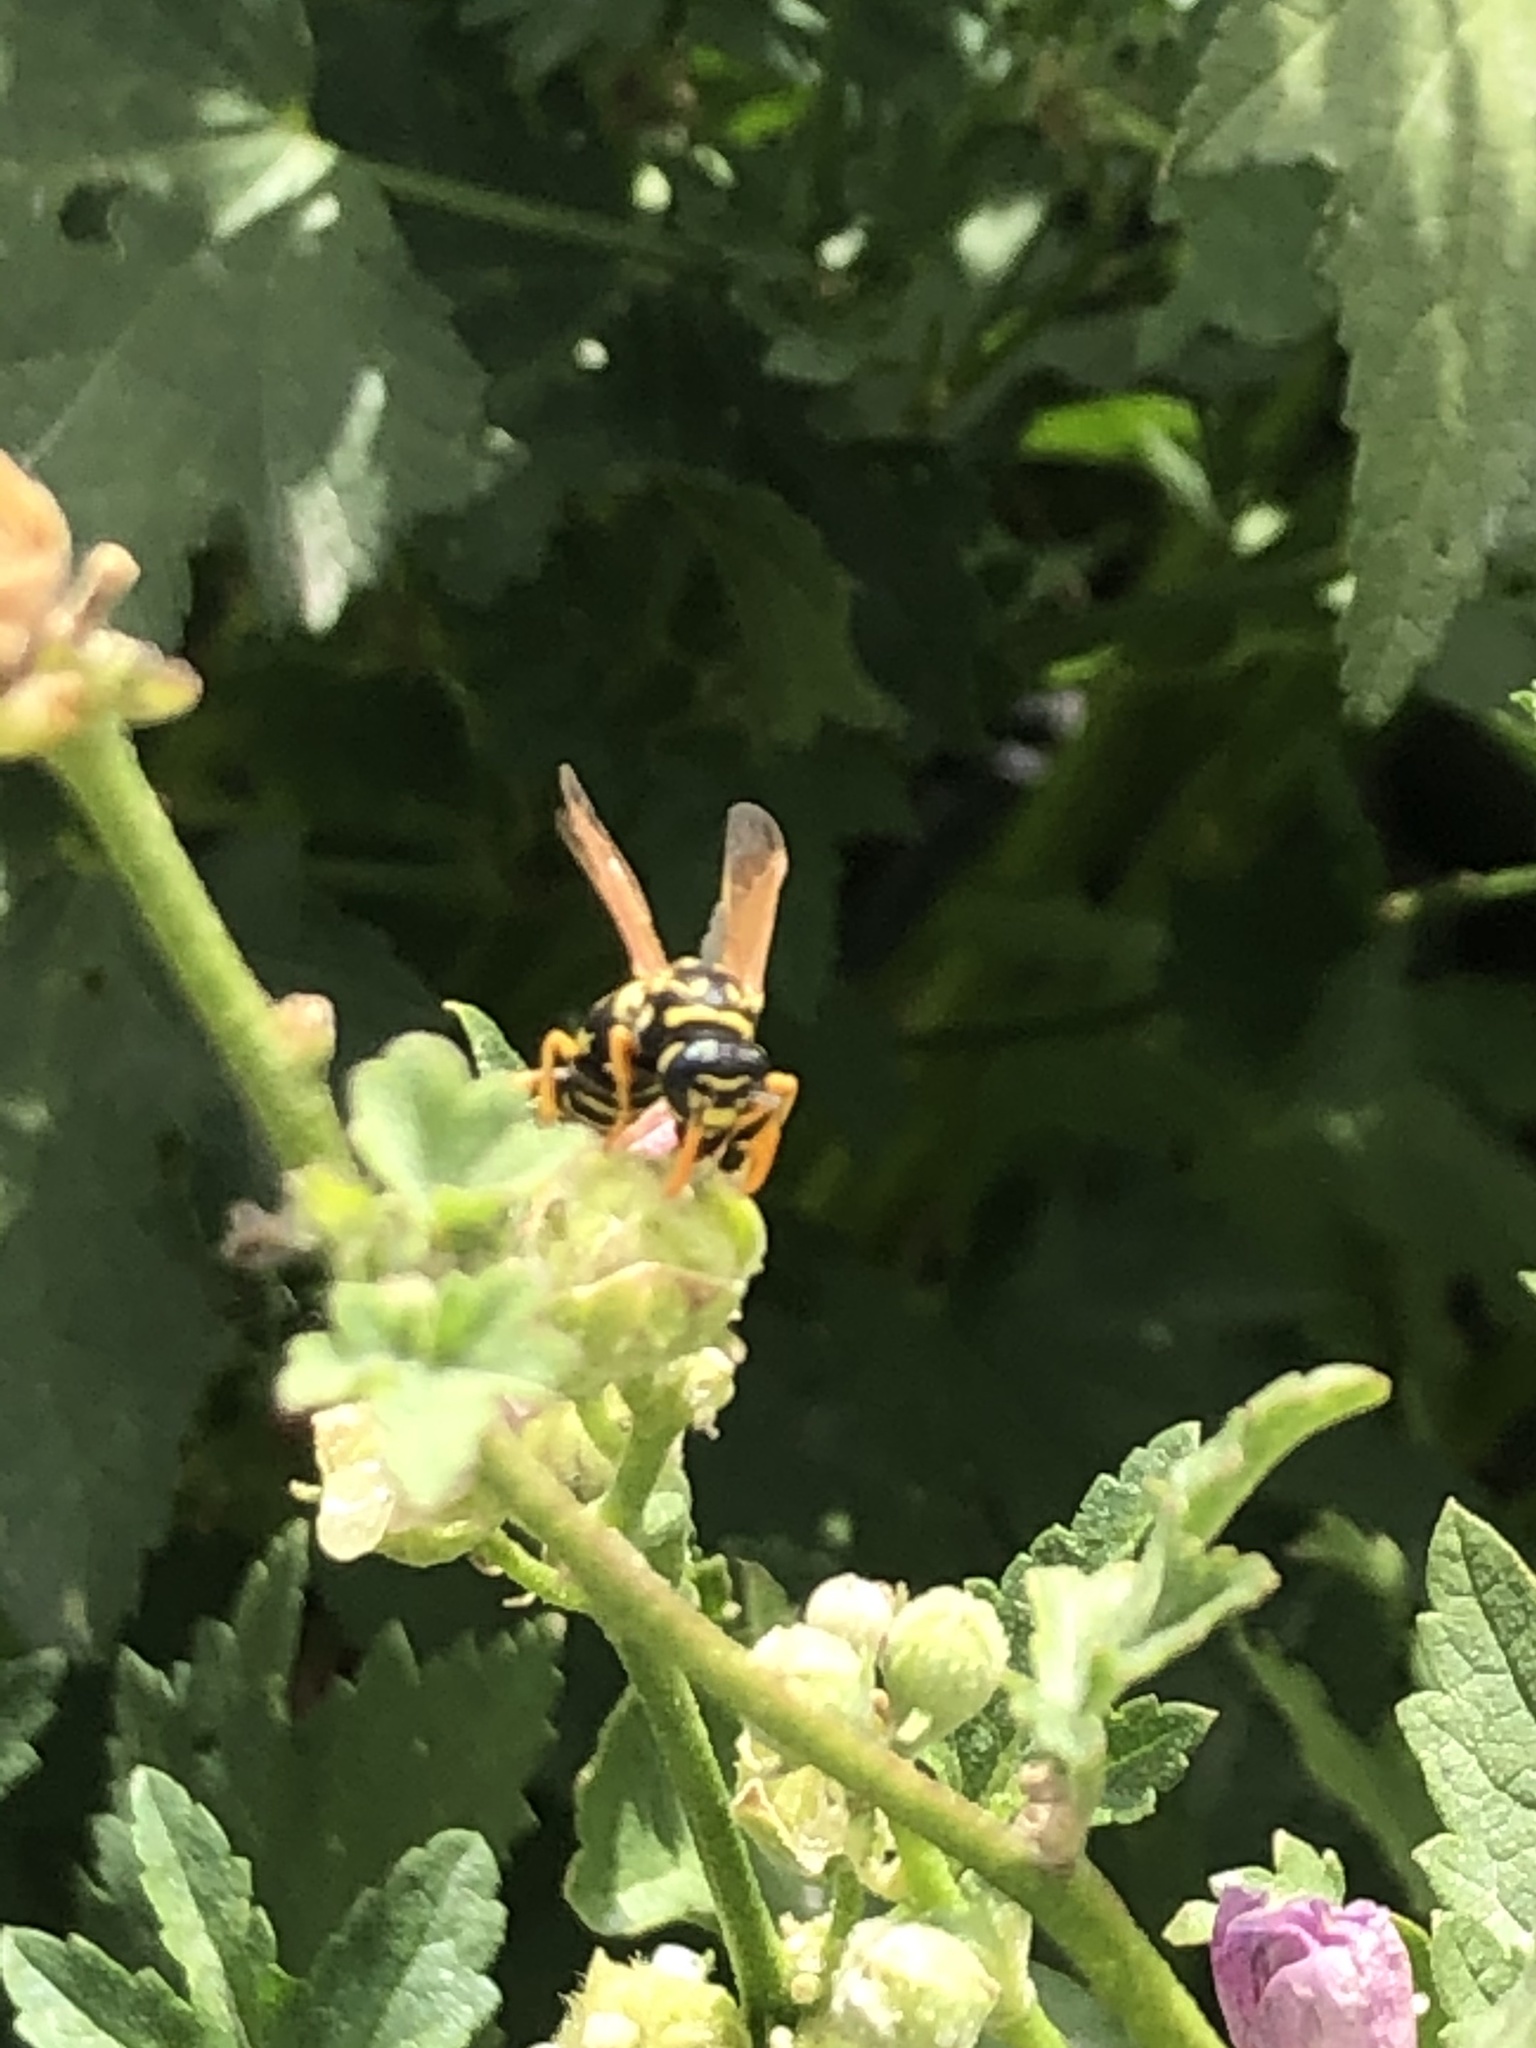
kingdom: Animalia
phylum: Arthropoda
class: Insecta
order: Hymenoptera
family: Eumenidae
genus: Polistes
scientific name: Polistes dominula
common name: Paper wasp
